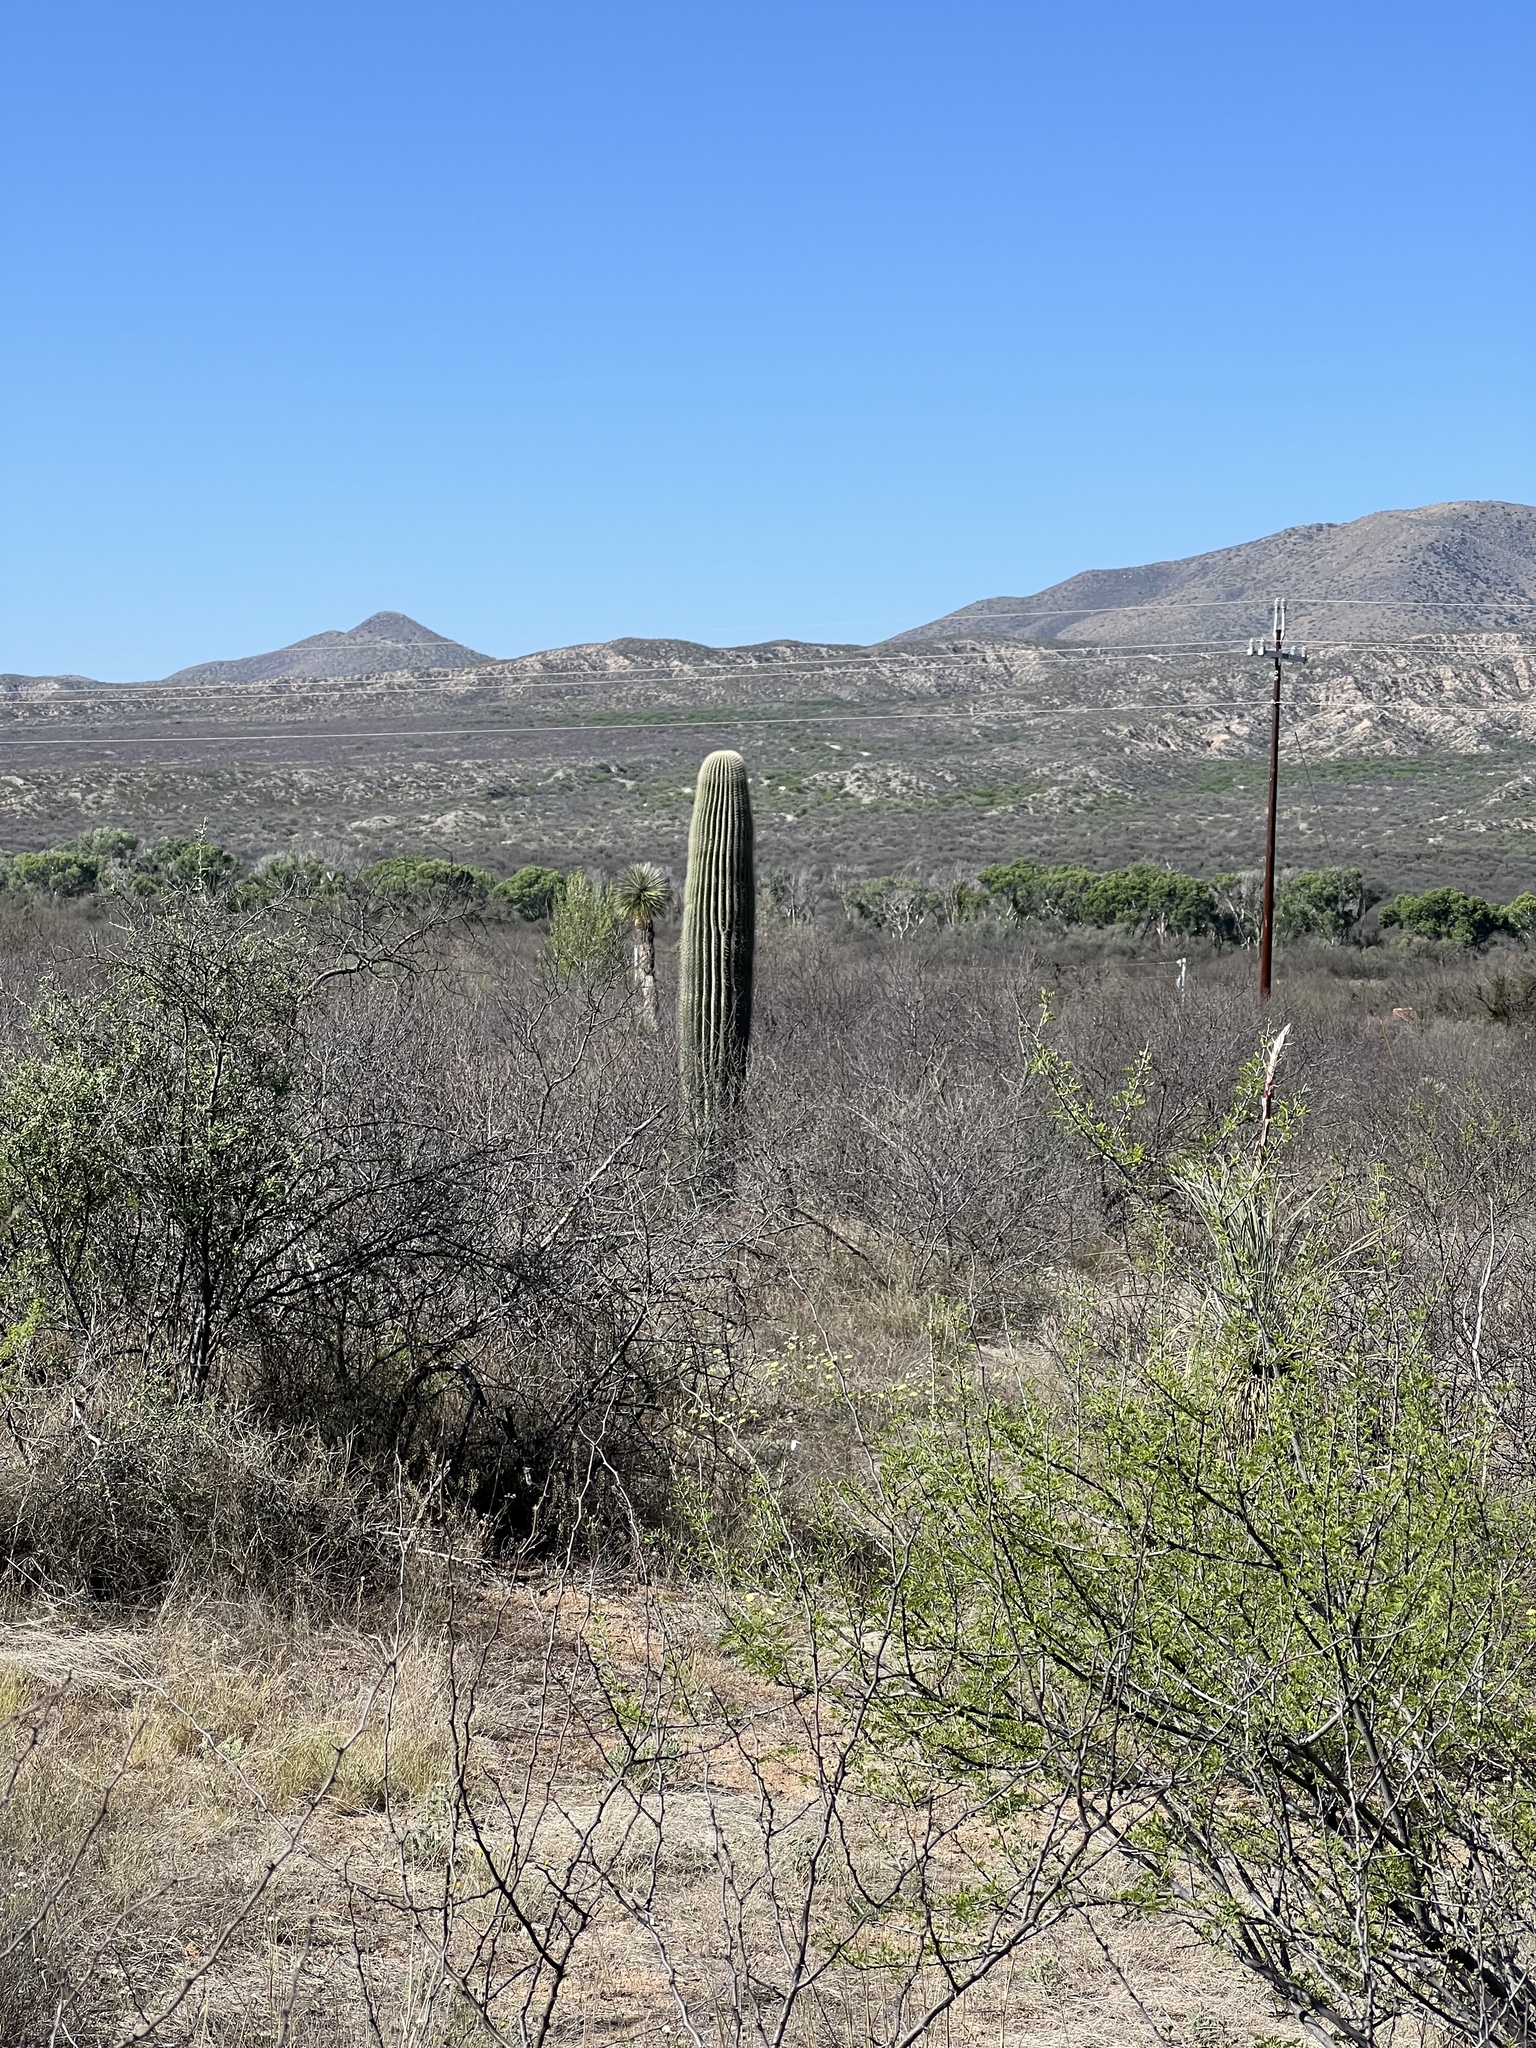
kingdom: Plantae
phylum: Tracheophyta
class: Magnoliopsida
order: Caryophyllales
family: Cactaceae
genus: Carnegiea
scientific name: Carnegiea gigantea
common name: Saguaro
